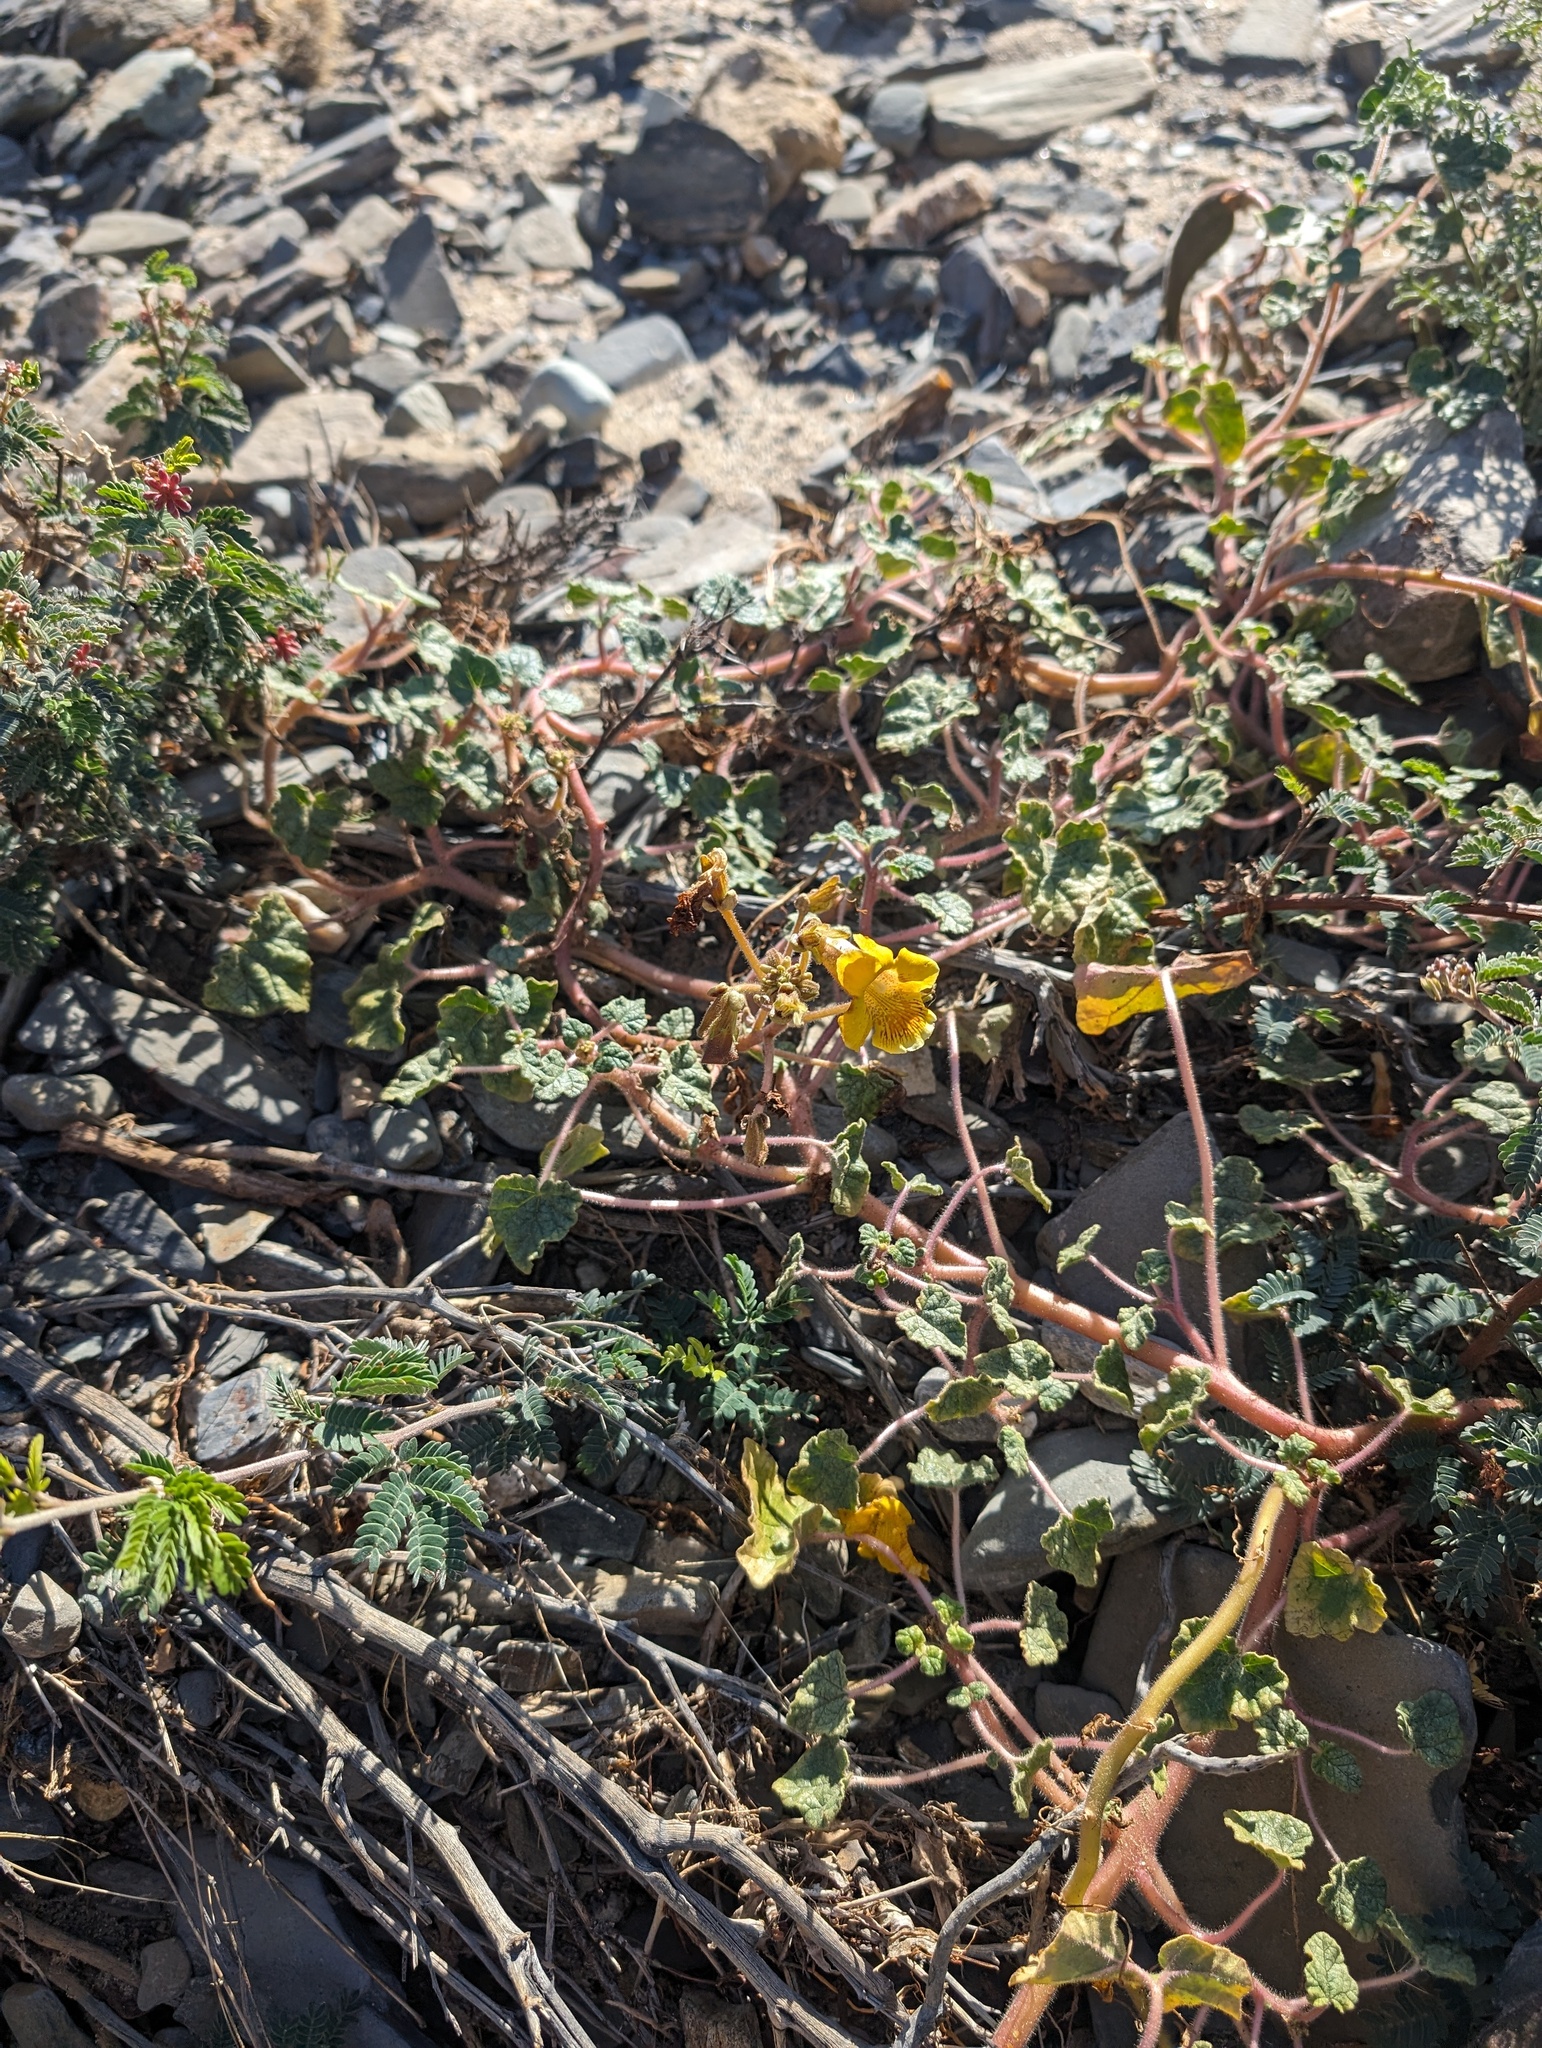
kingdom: Plantae
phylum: Tracheophyta
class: Magnoliopsida
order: Lamiales
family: Martyniaceae
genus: Proboscidea
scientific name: Proboscidea althaeifolia
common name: Desert unicorn-plant
